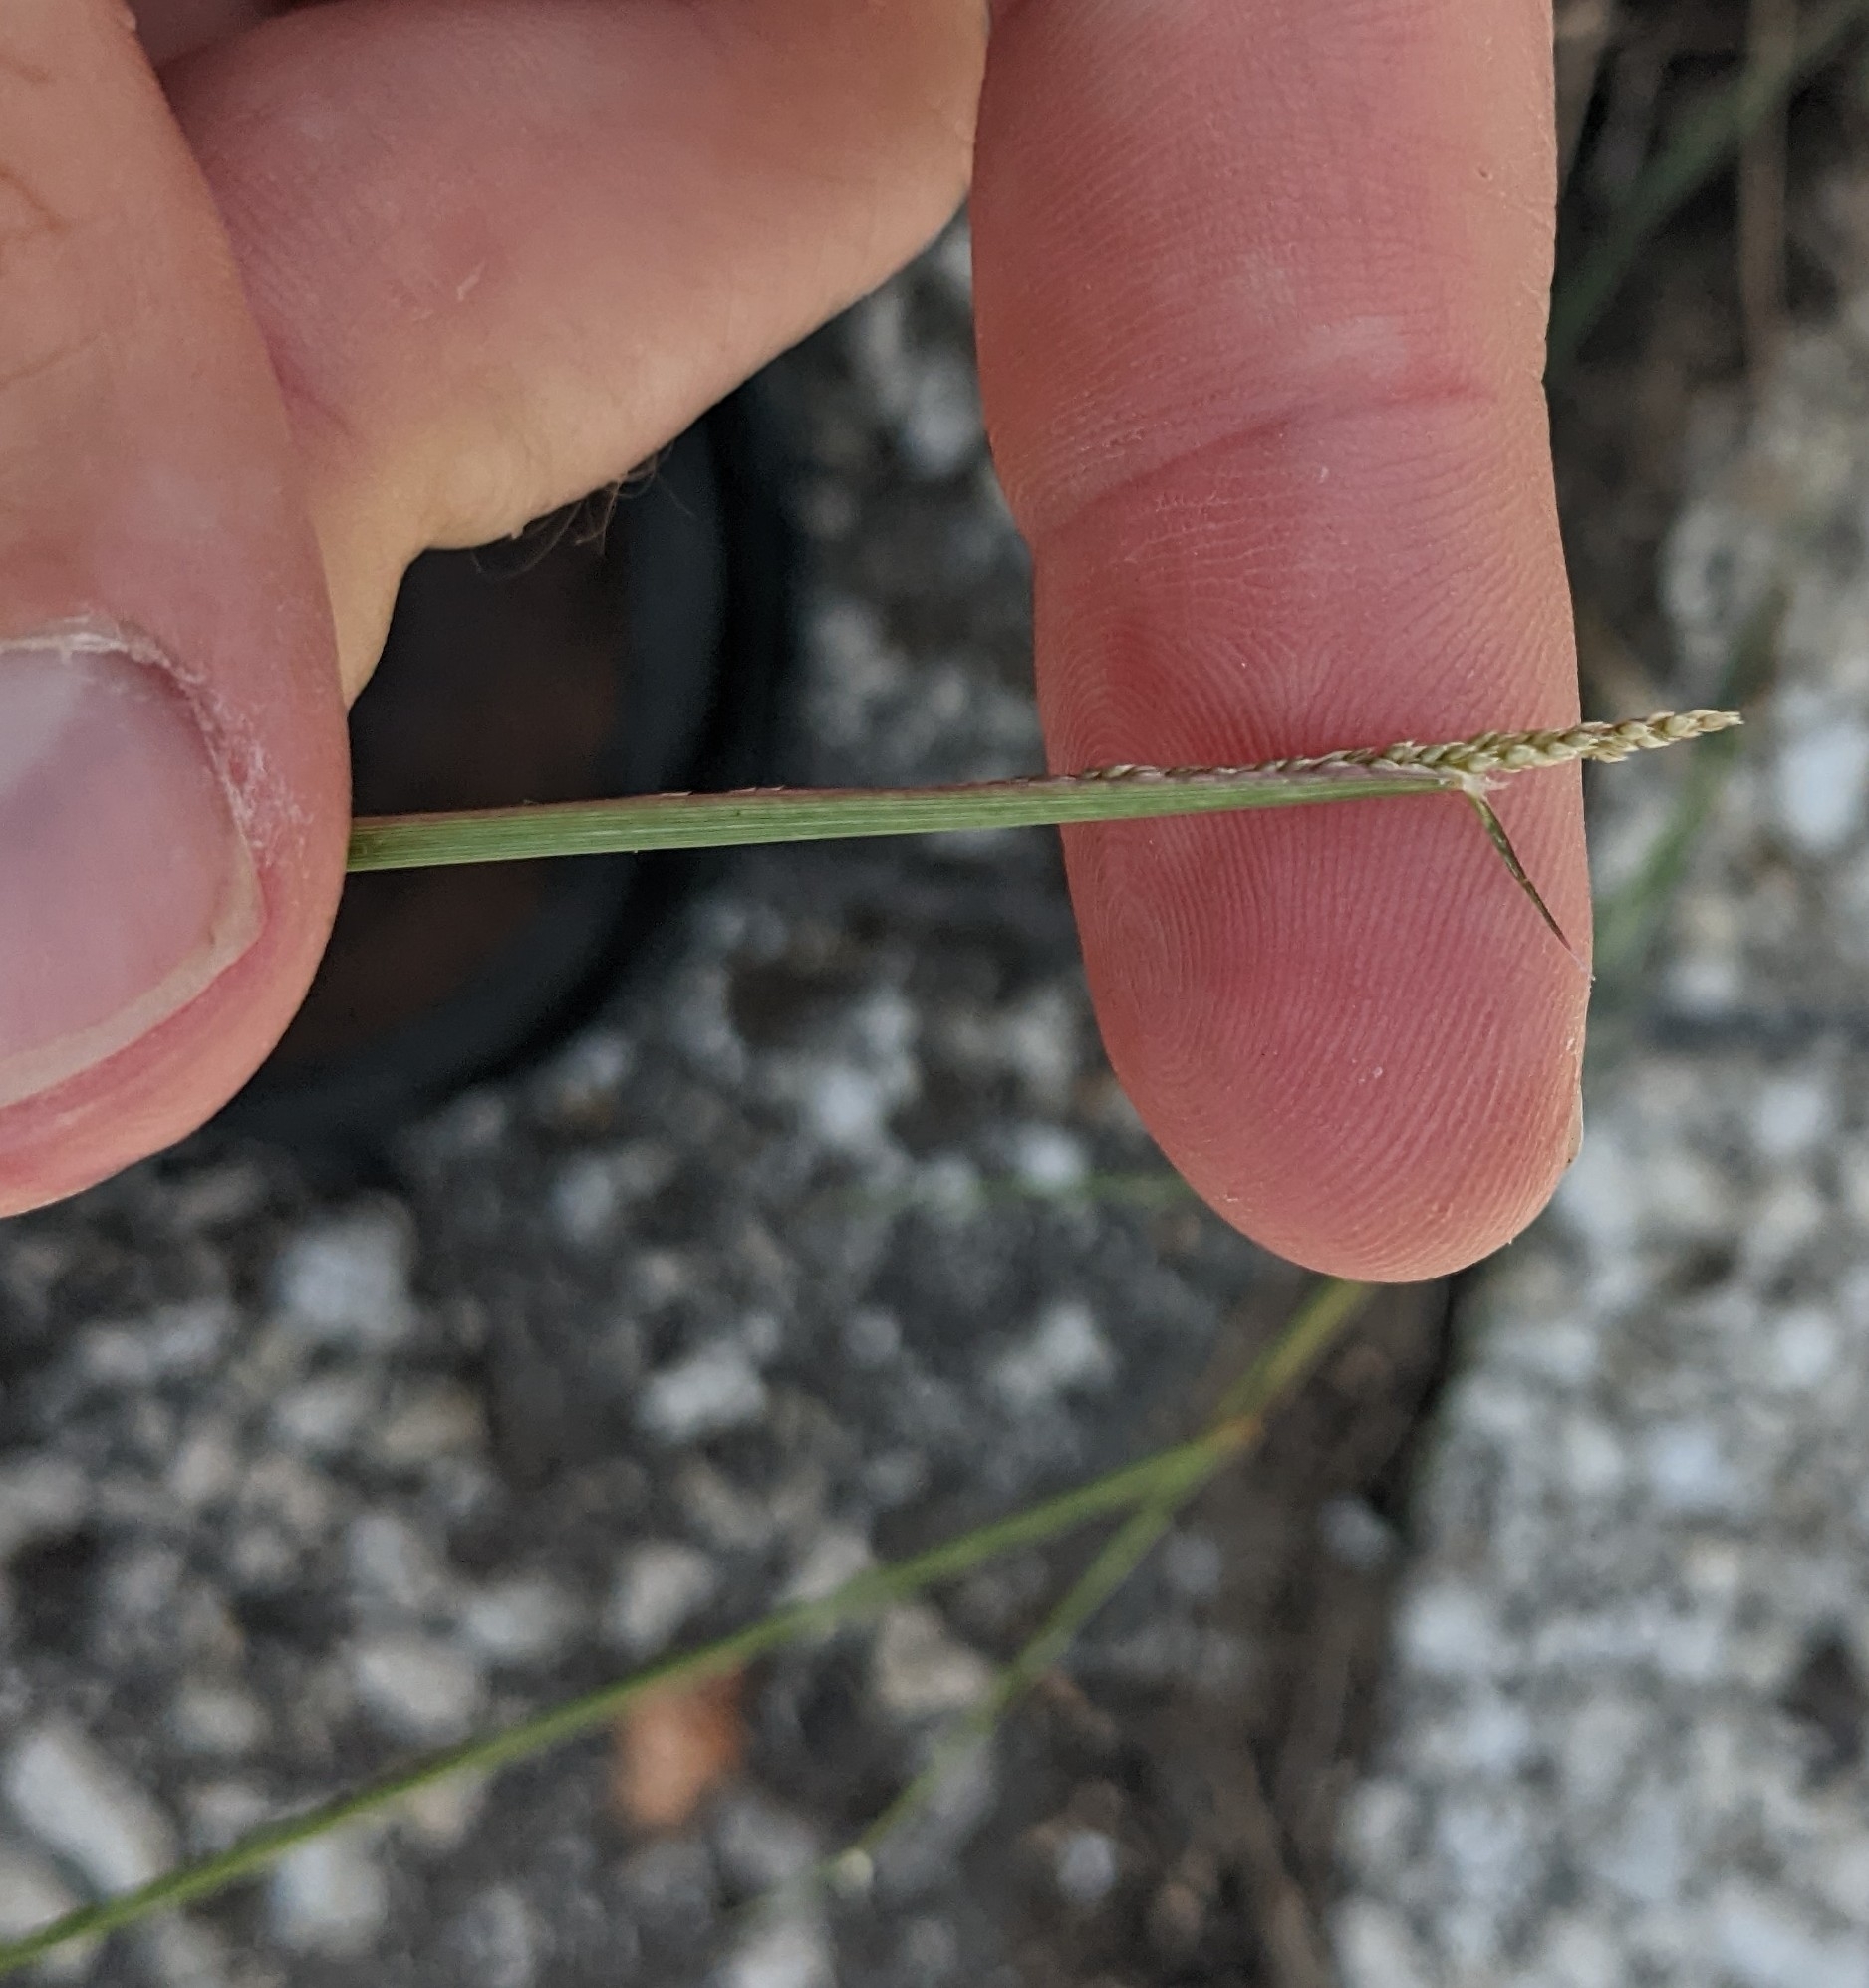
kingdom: Plantae
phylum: Tracheophyta
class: Liliopsida
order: Poales
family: Poaceae
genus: Sporobolus
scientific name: Sporobolus cryptandrus
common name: Sand dropseed
